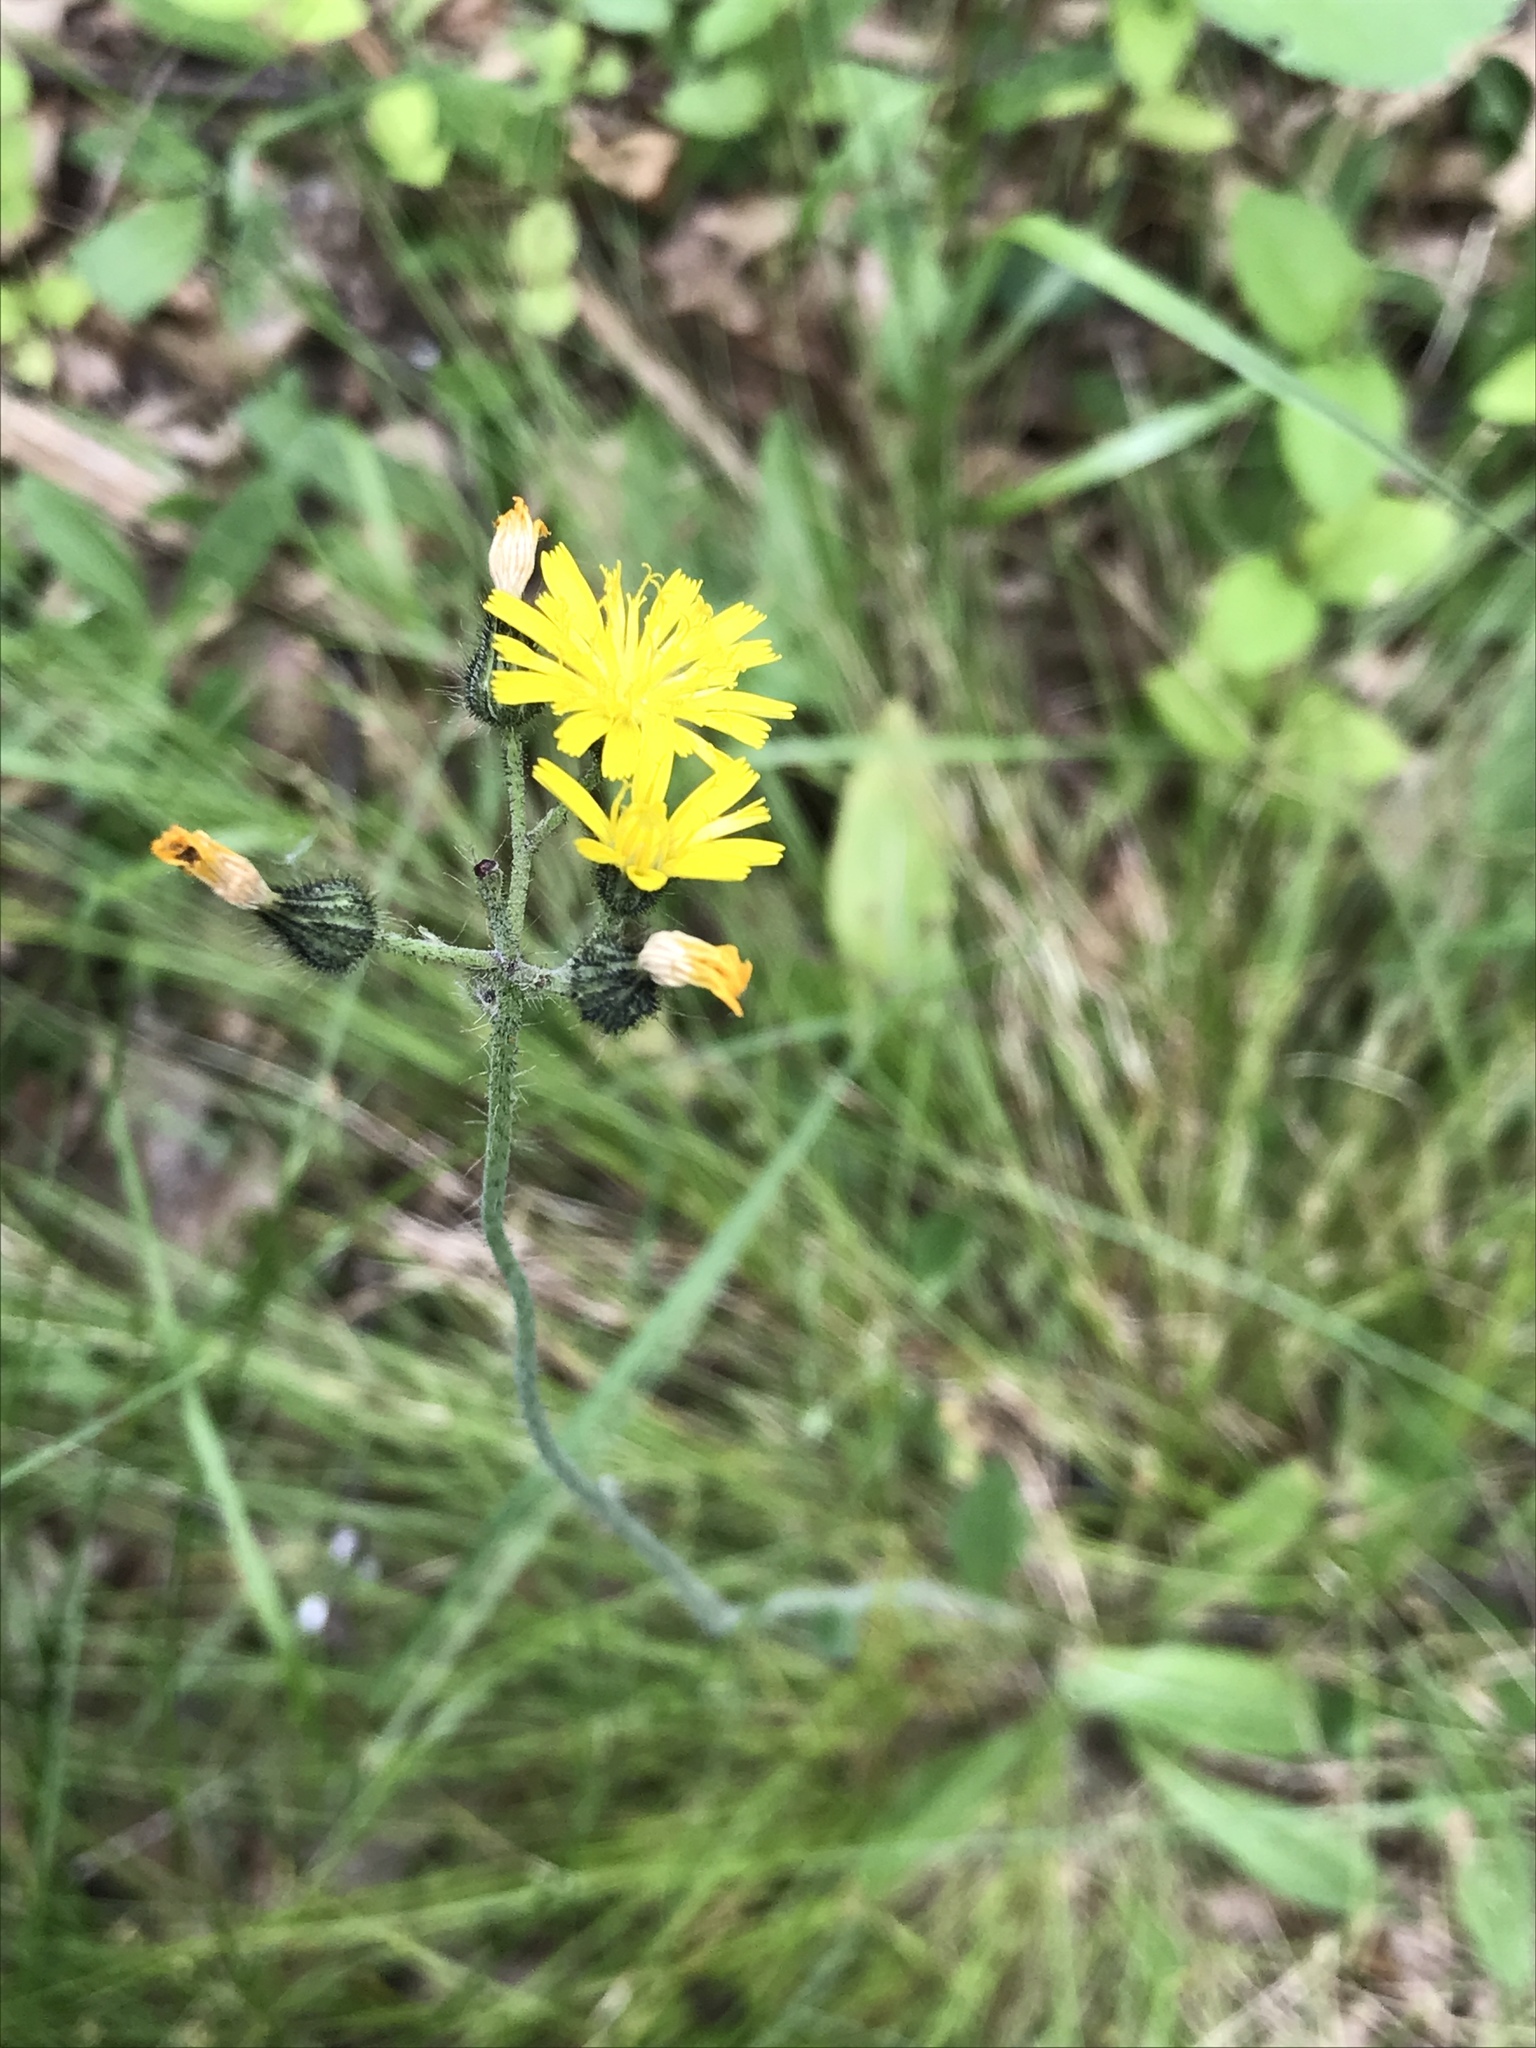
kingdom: Plantae
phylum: Tracheophyta
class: Magnoliopsida
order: Asterales
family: Asteraceae
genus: Pilosella
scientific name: Pilosella caespitosa
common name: Yellow fox-and-cubs
